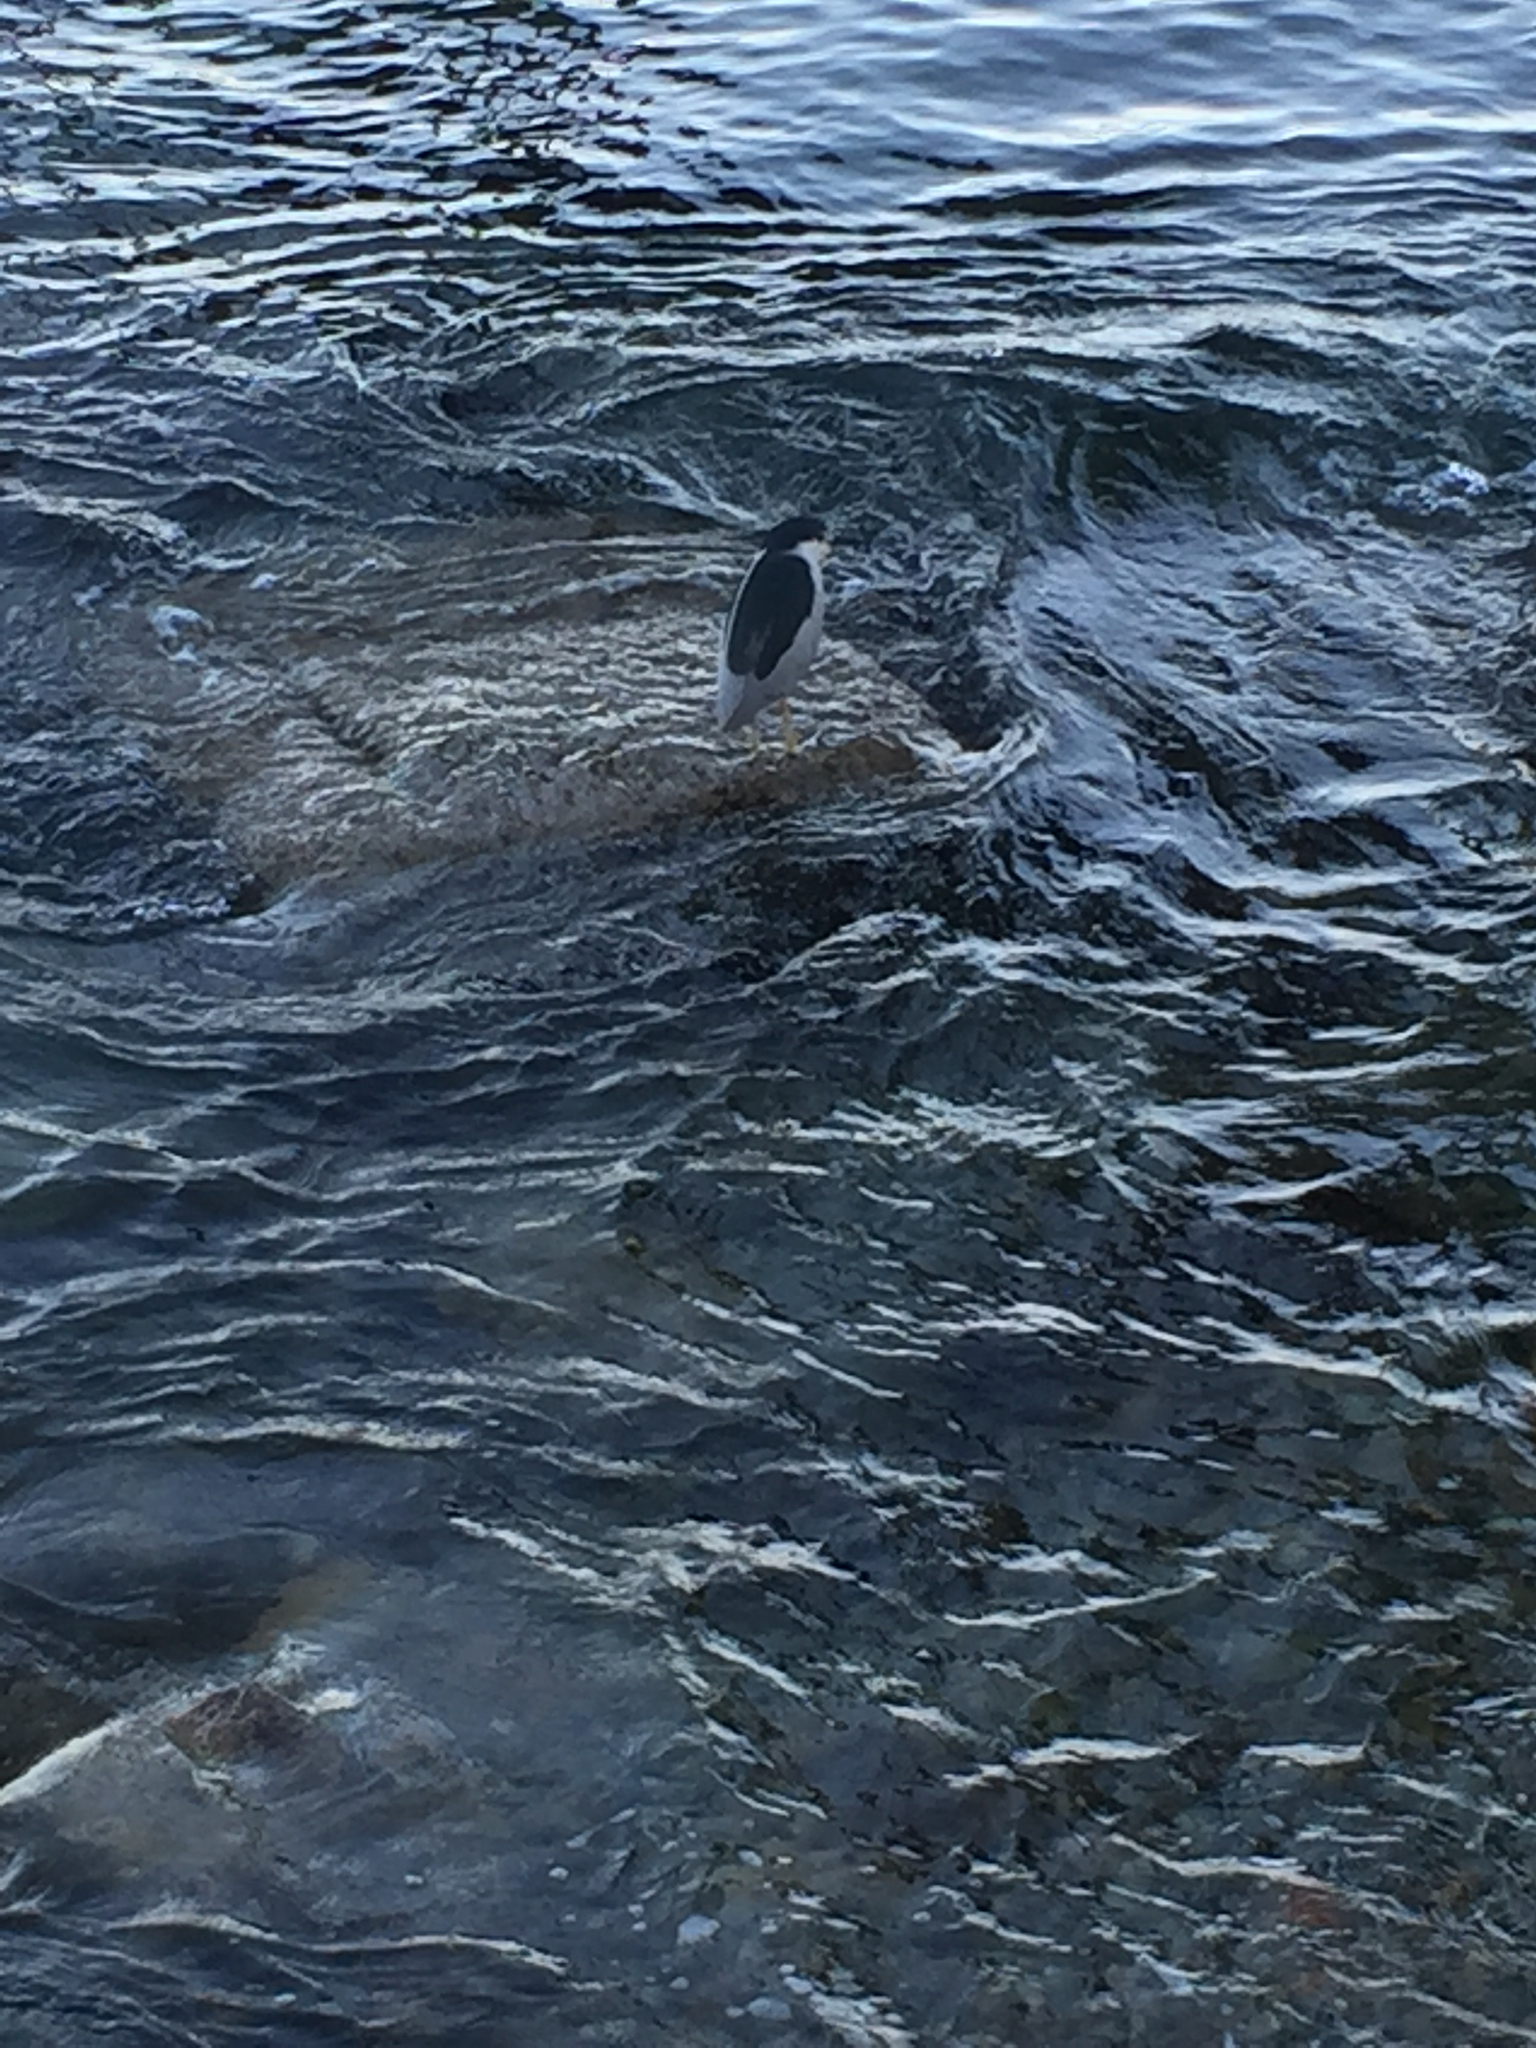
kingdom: Animalia
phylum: Chordata
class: Aves
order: Pelecaniformes
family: Ardeidae
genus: Nycticorax
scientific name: Nycticorax nycticorax
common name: Black-crowned night heron
